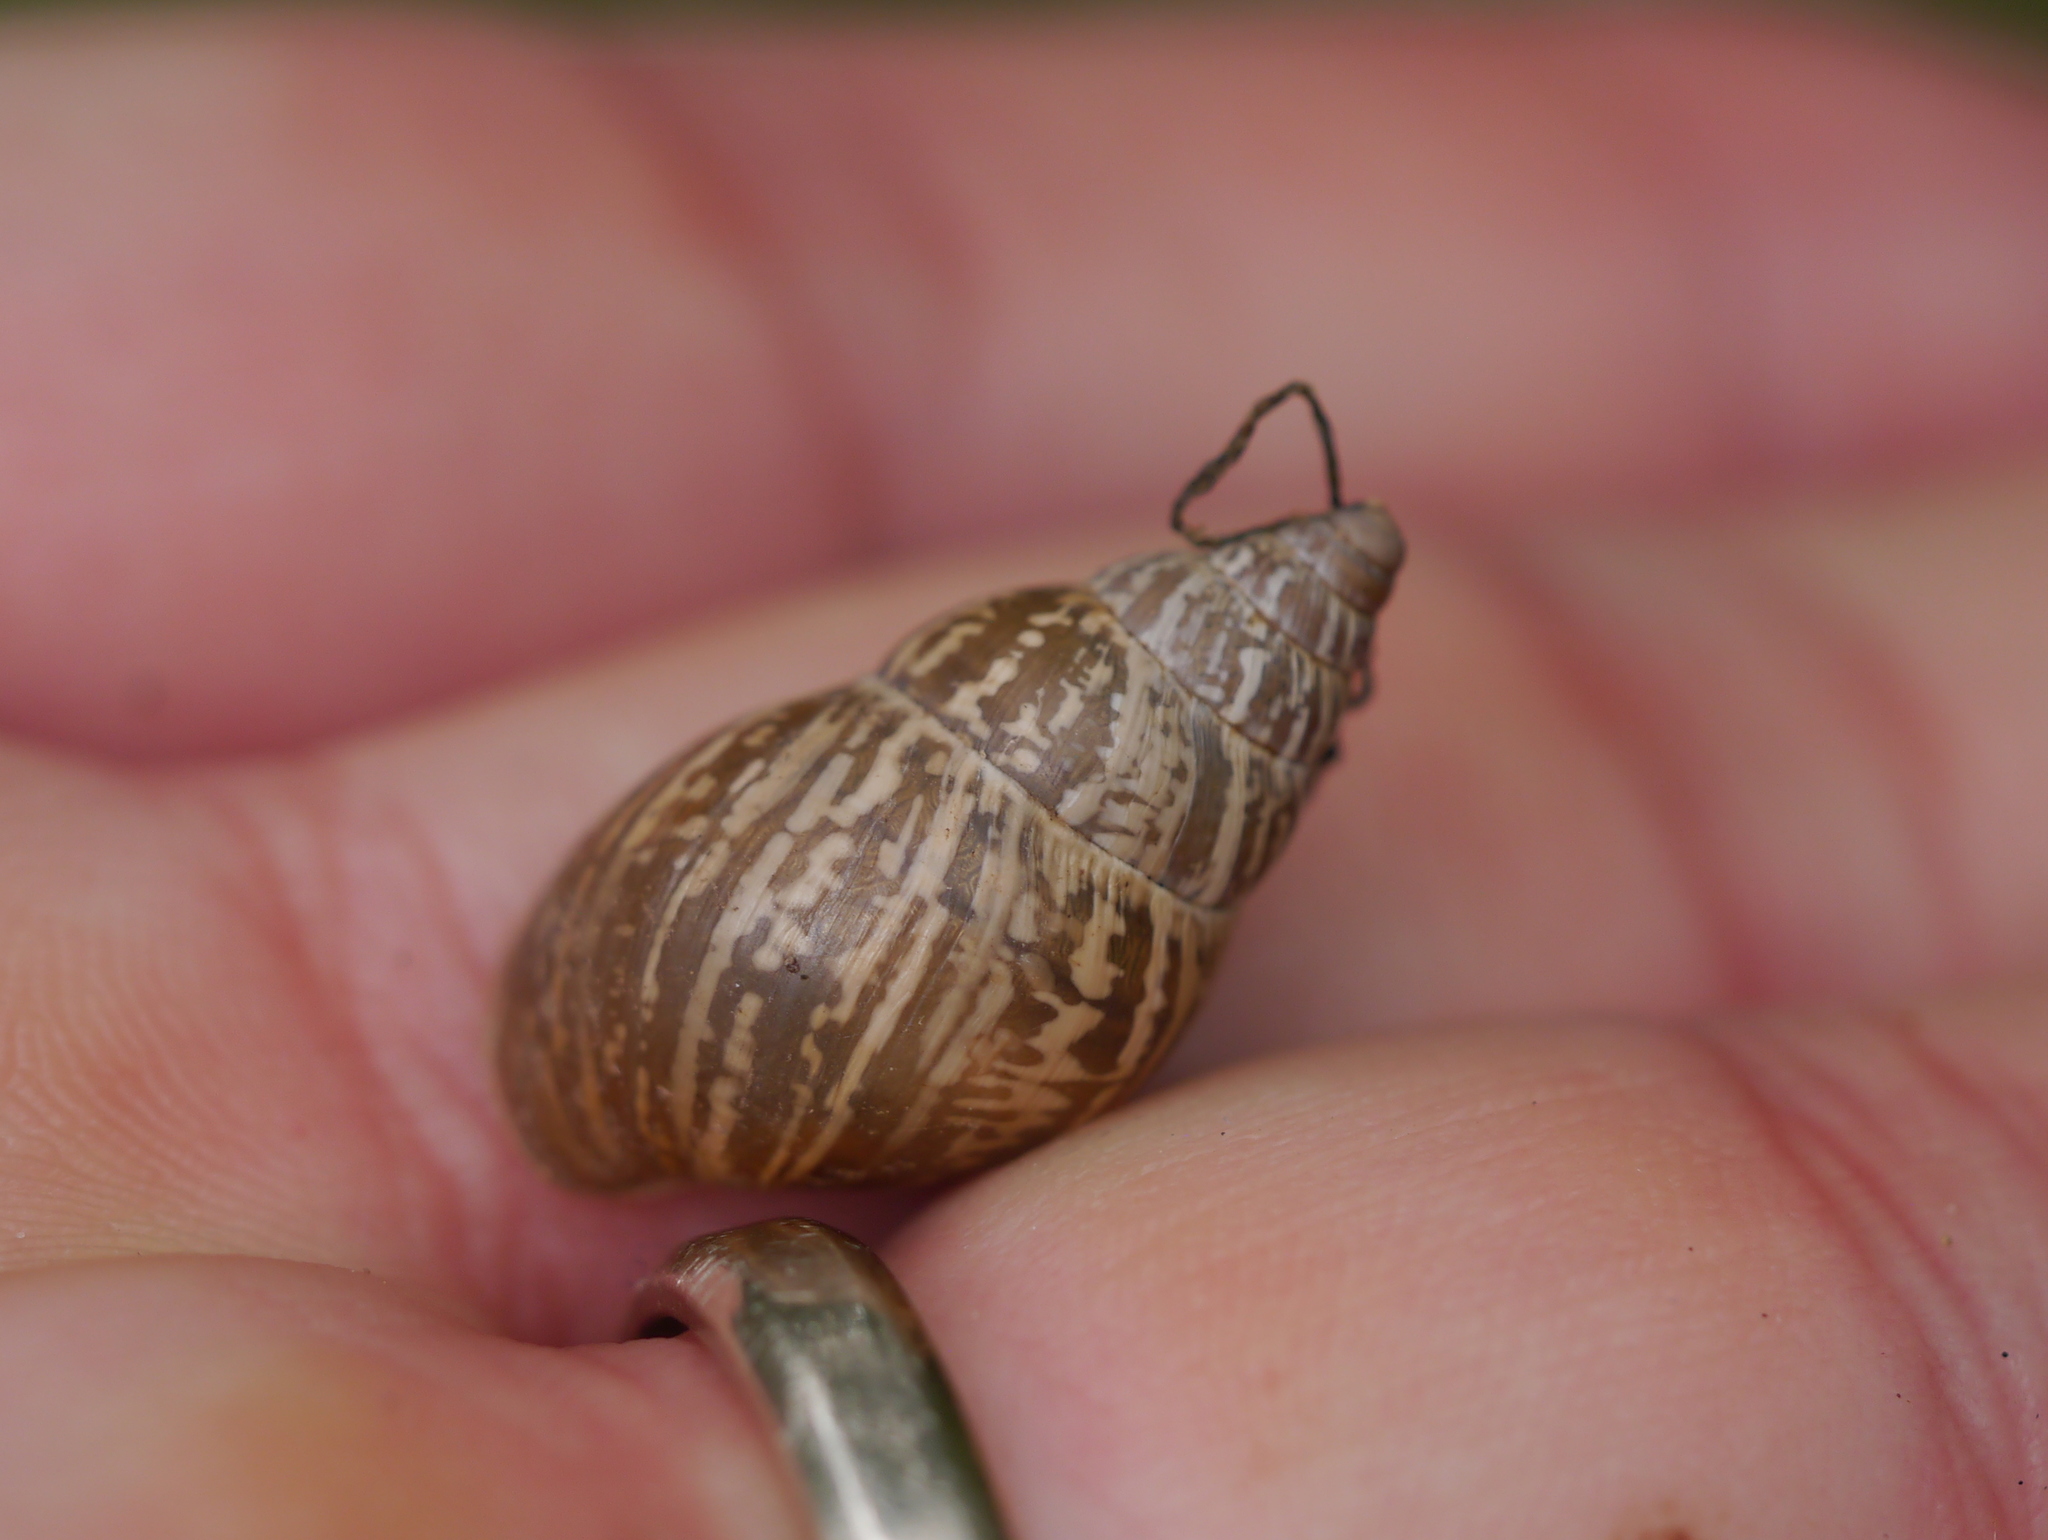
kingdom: Animalia
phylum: Mollusca
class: Gastropoda
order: Stylommatophora
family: Bulimulidae
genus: Rabdotus
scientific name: Rabdotus dealbatus
